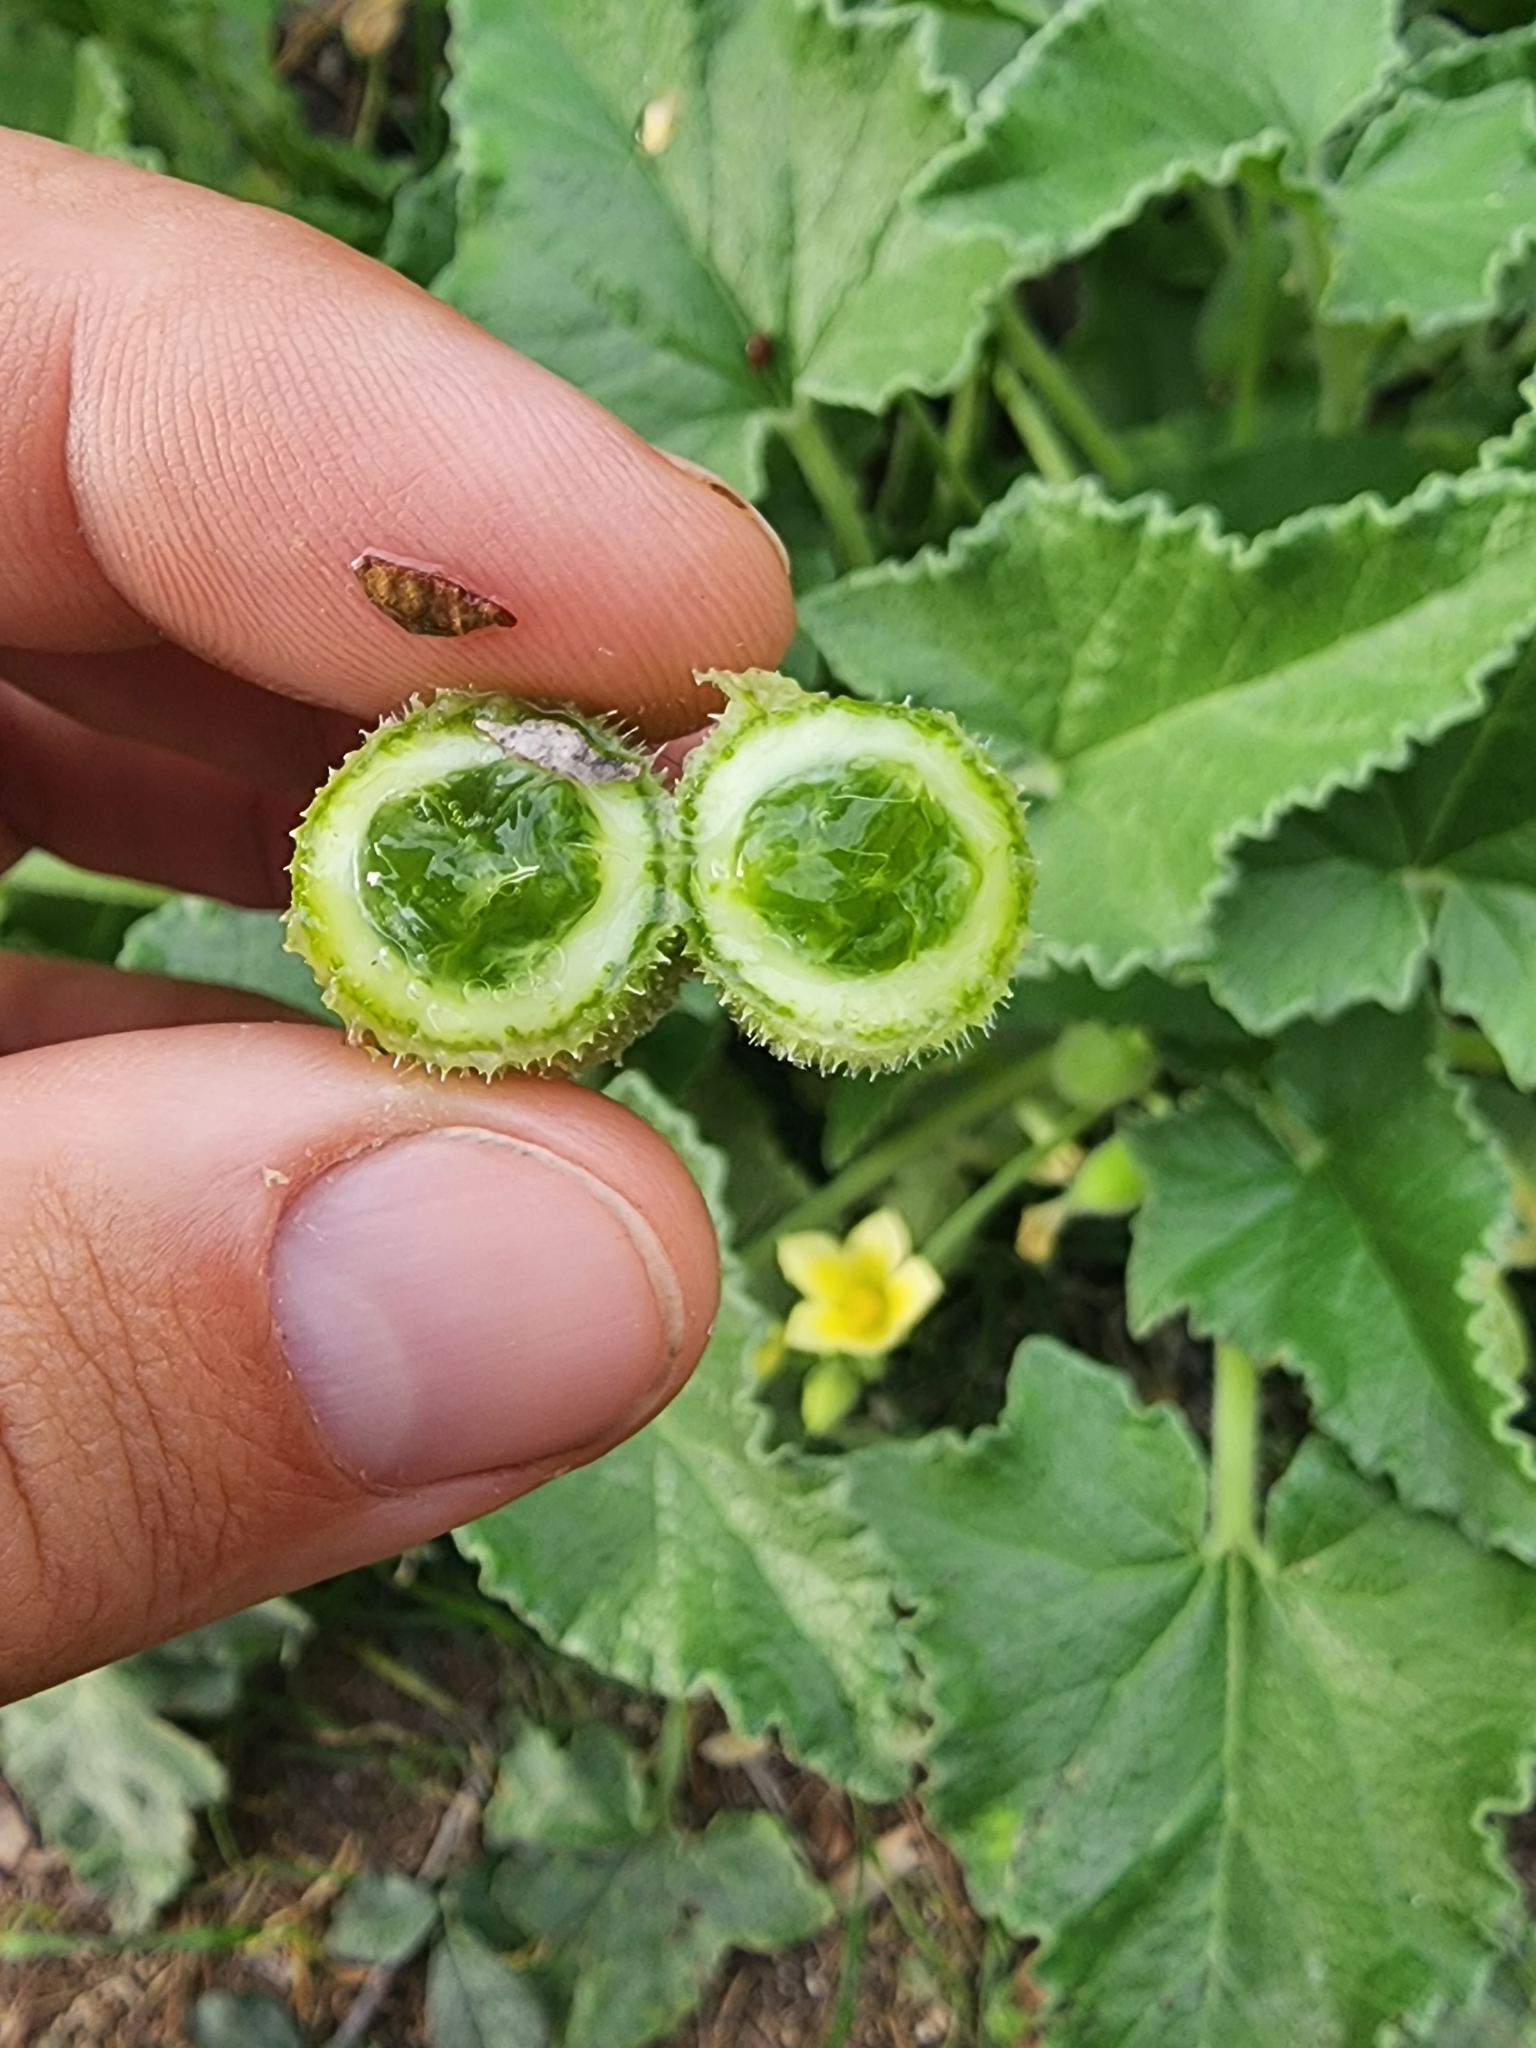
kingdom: Plantae
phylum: Tracheophyta
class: Magnoliopsida
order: Cucurbitales
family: Cucurbitaceae
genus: Ecballium
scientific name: Ecballium elaterium
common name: Squirting cucumber
